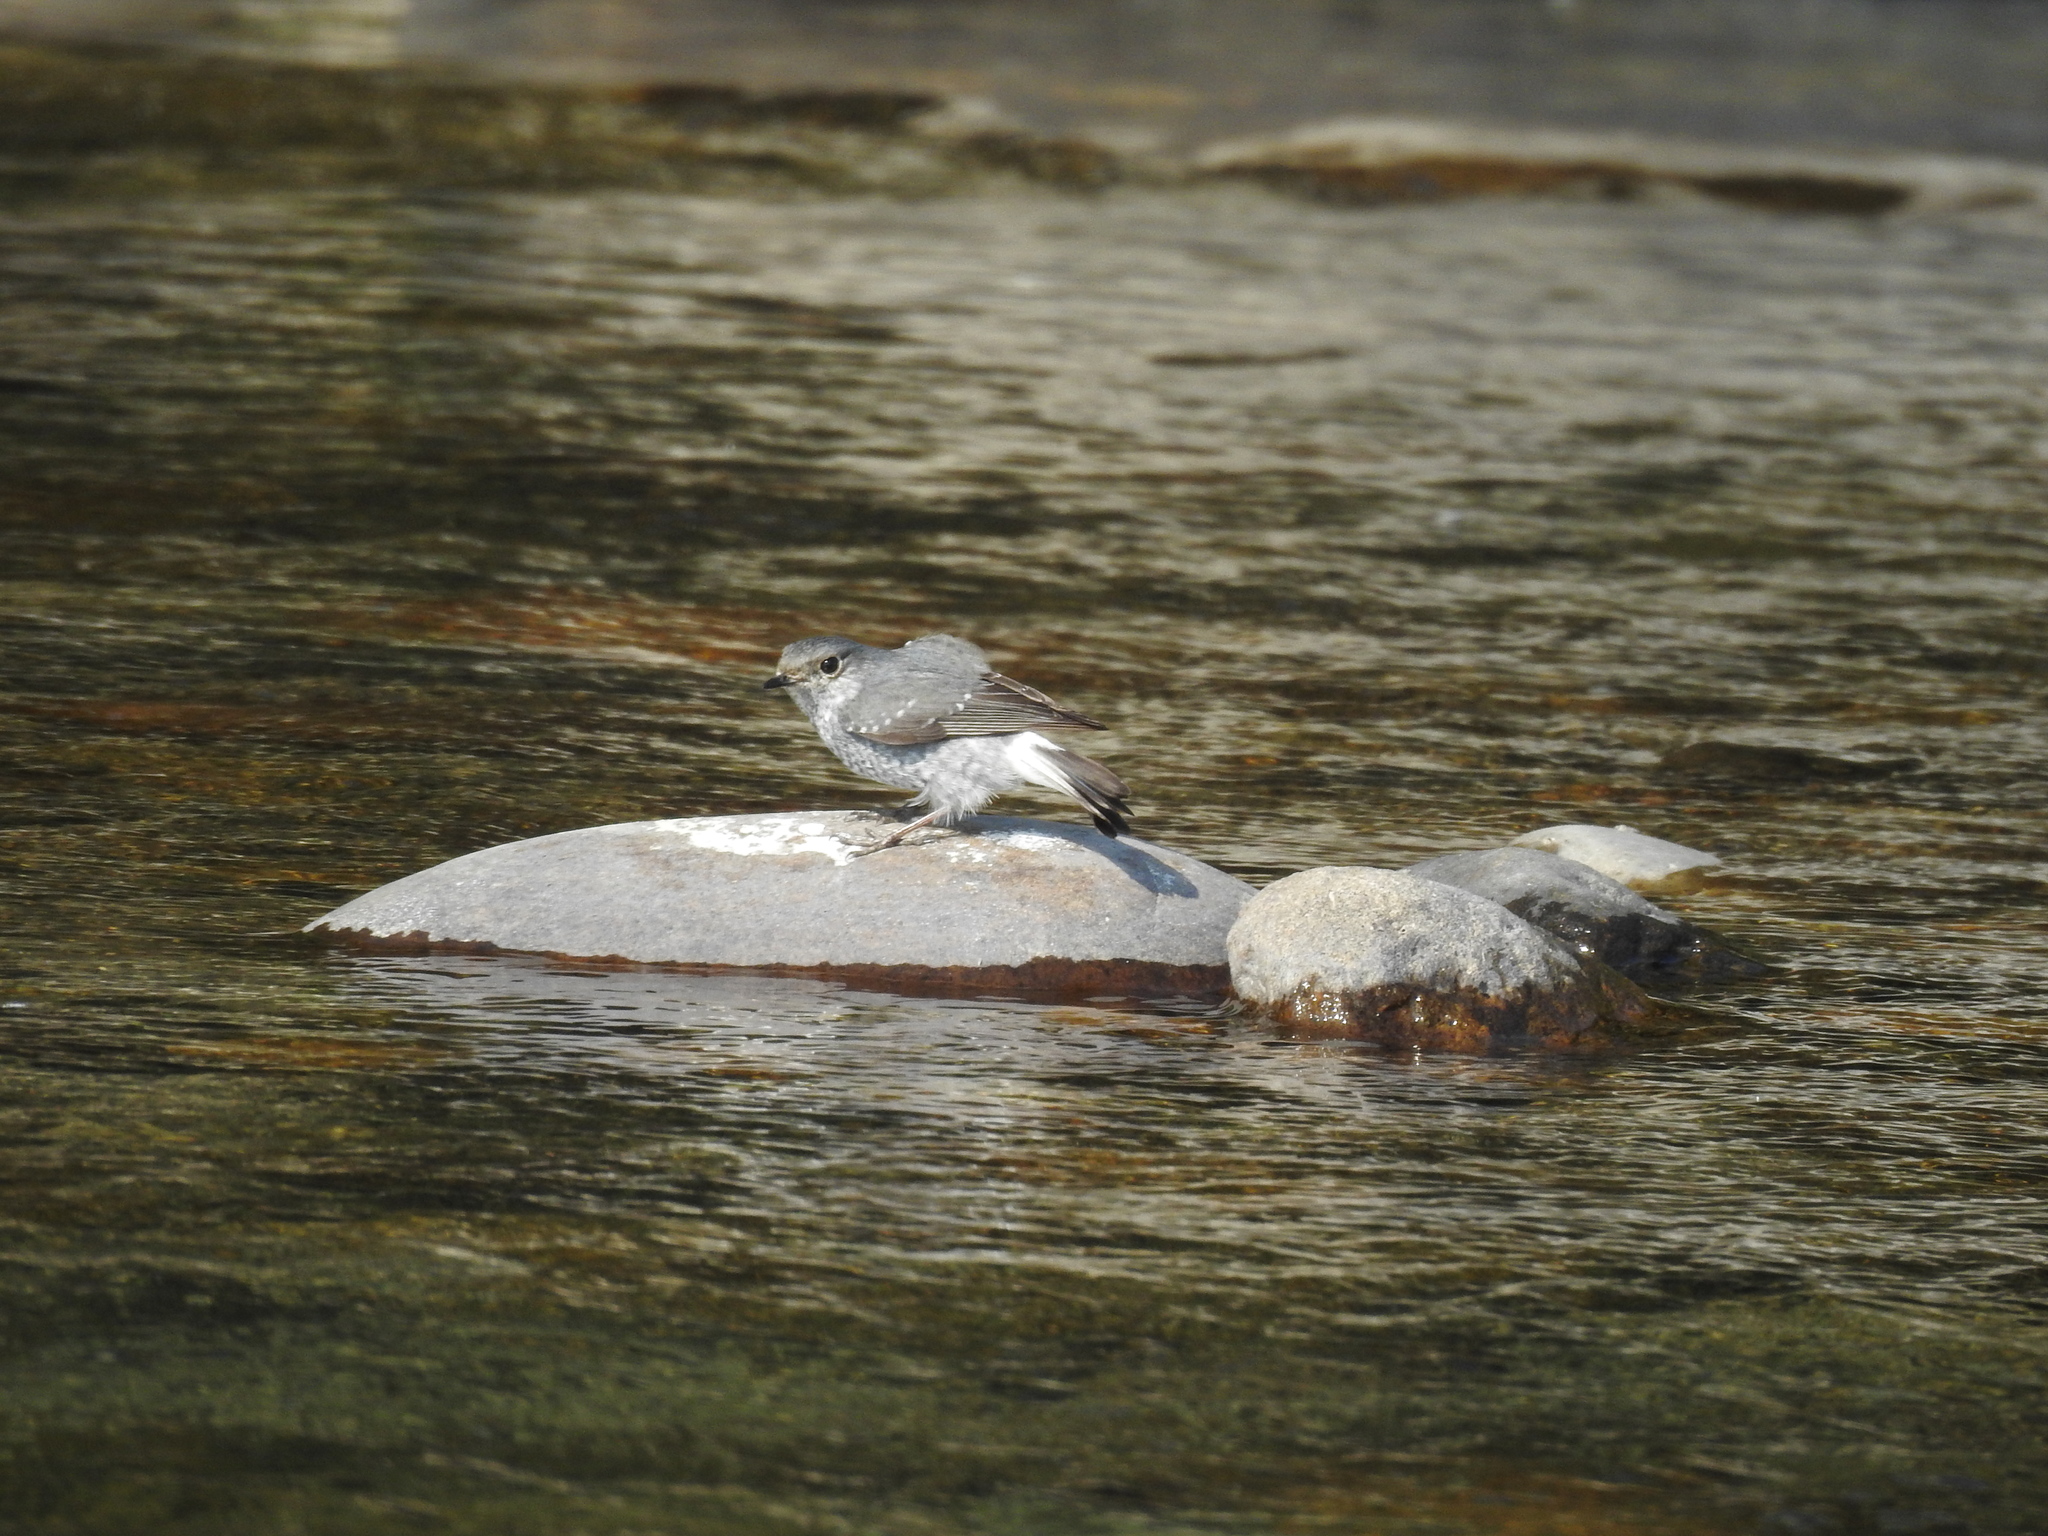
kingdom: Animalia
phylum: Chordata
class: Aves
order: Passeriformes
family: Muscicapidae
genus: Phoenicurus
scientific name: Phoenicurus fuliginosus
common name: Plumbeous water redstart
